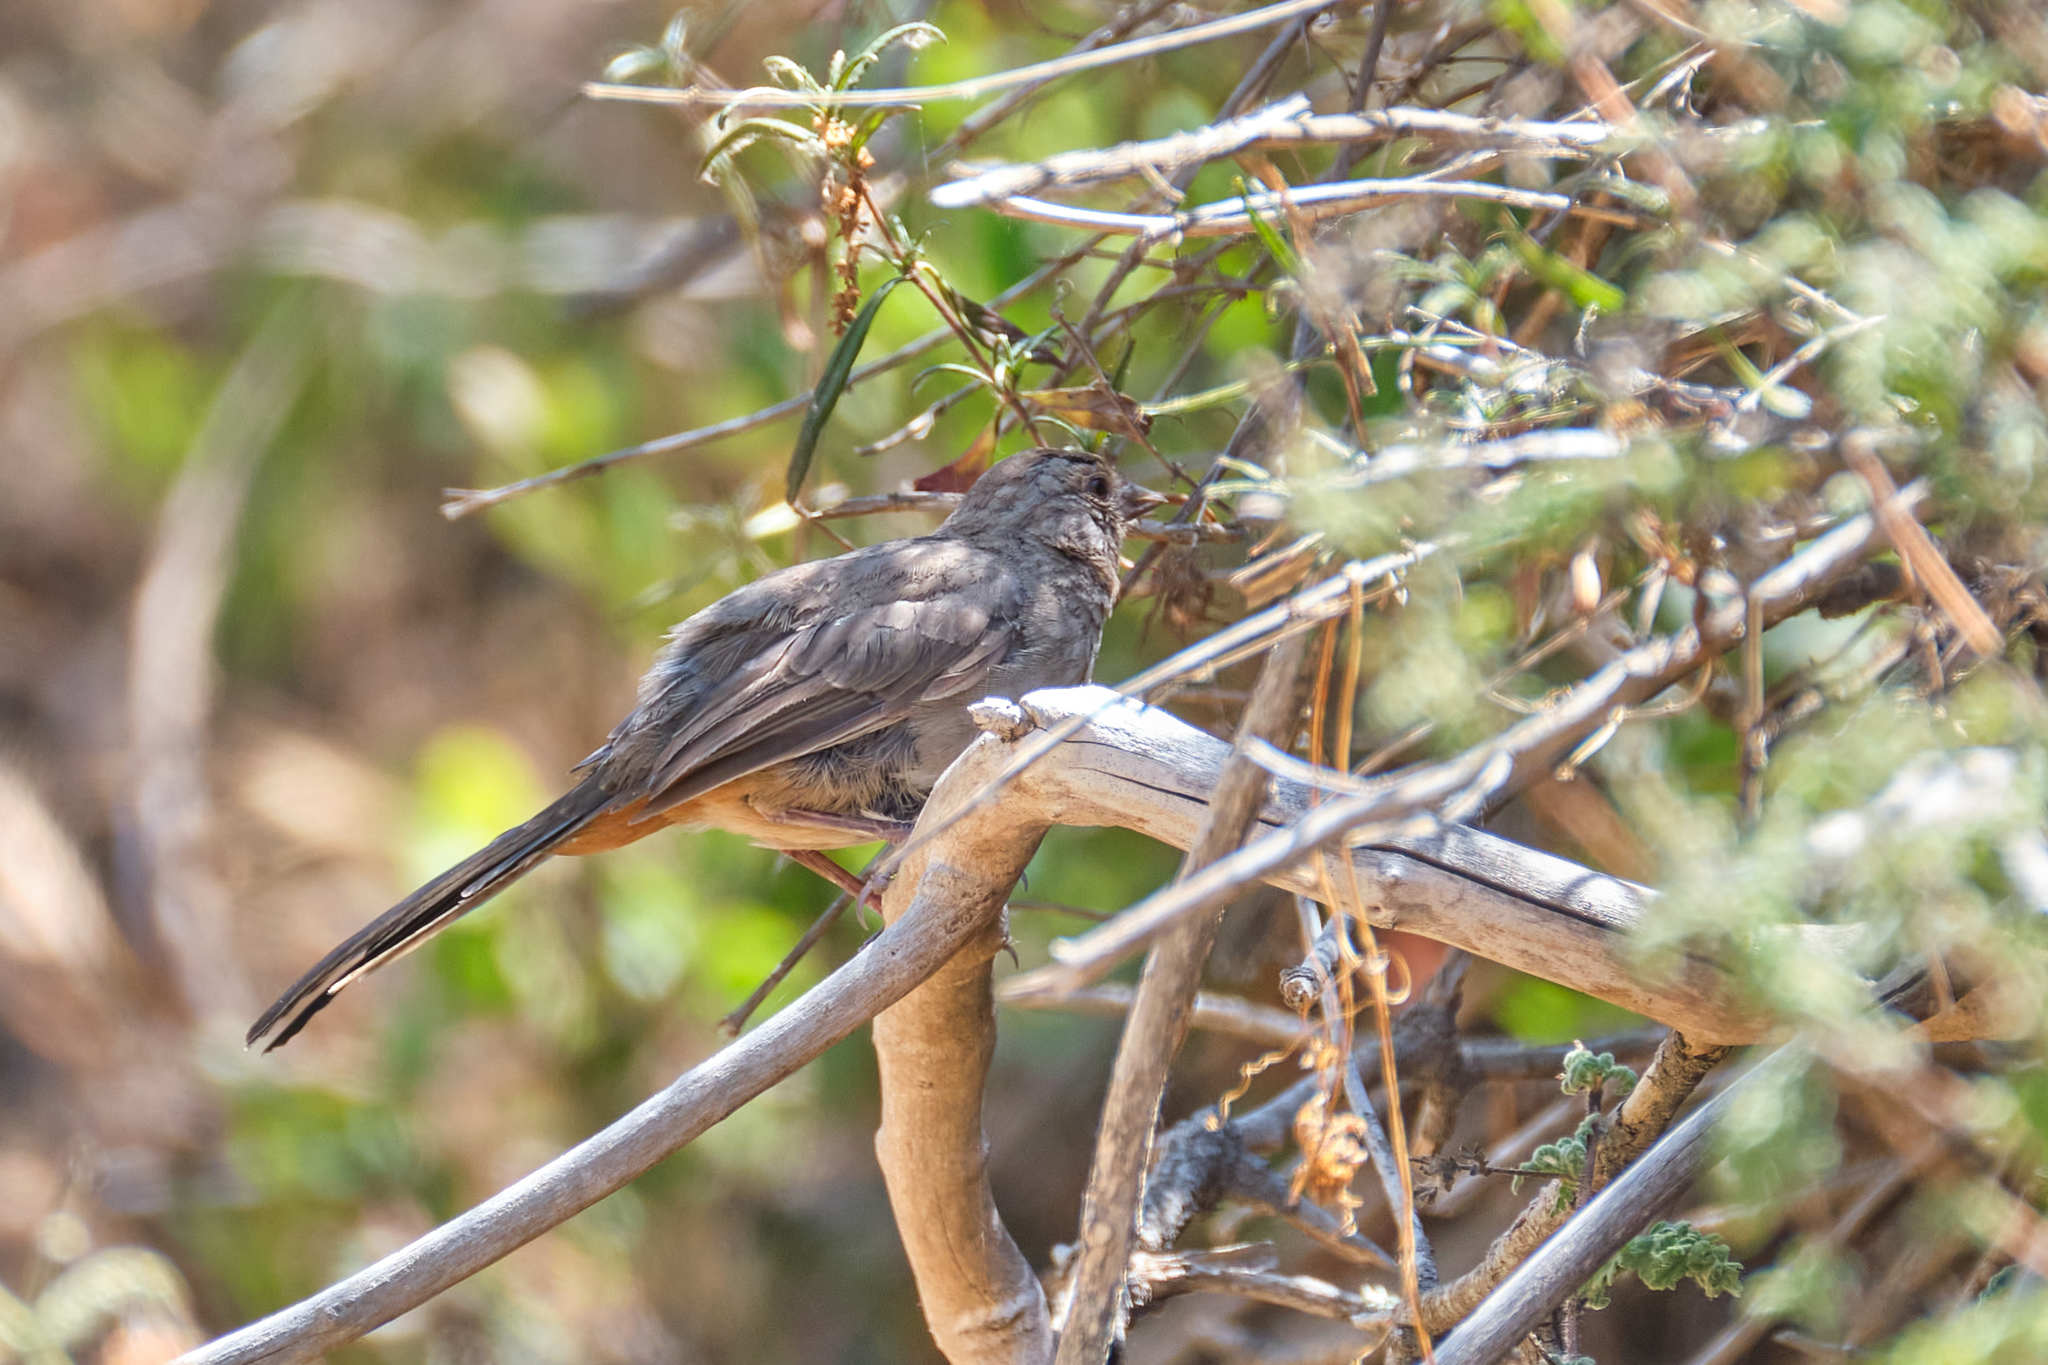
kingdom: Animalia
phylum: Chordata
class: Aves
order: Passeriformes
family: Passerellidae
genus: Melozone
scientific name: Melozone crissalis
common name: California towhee
